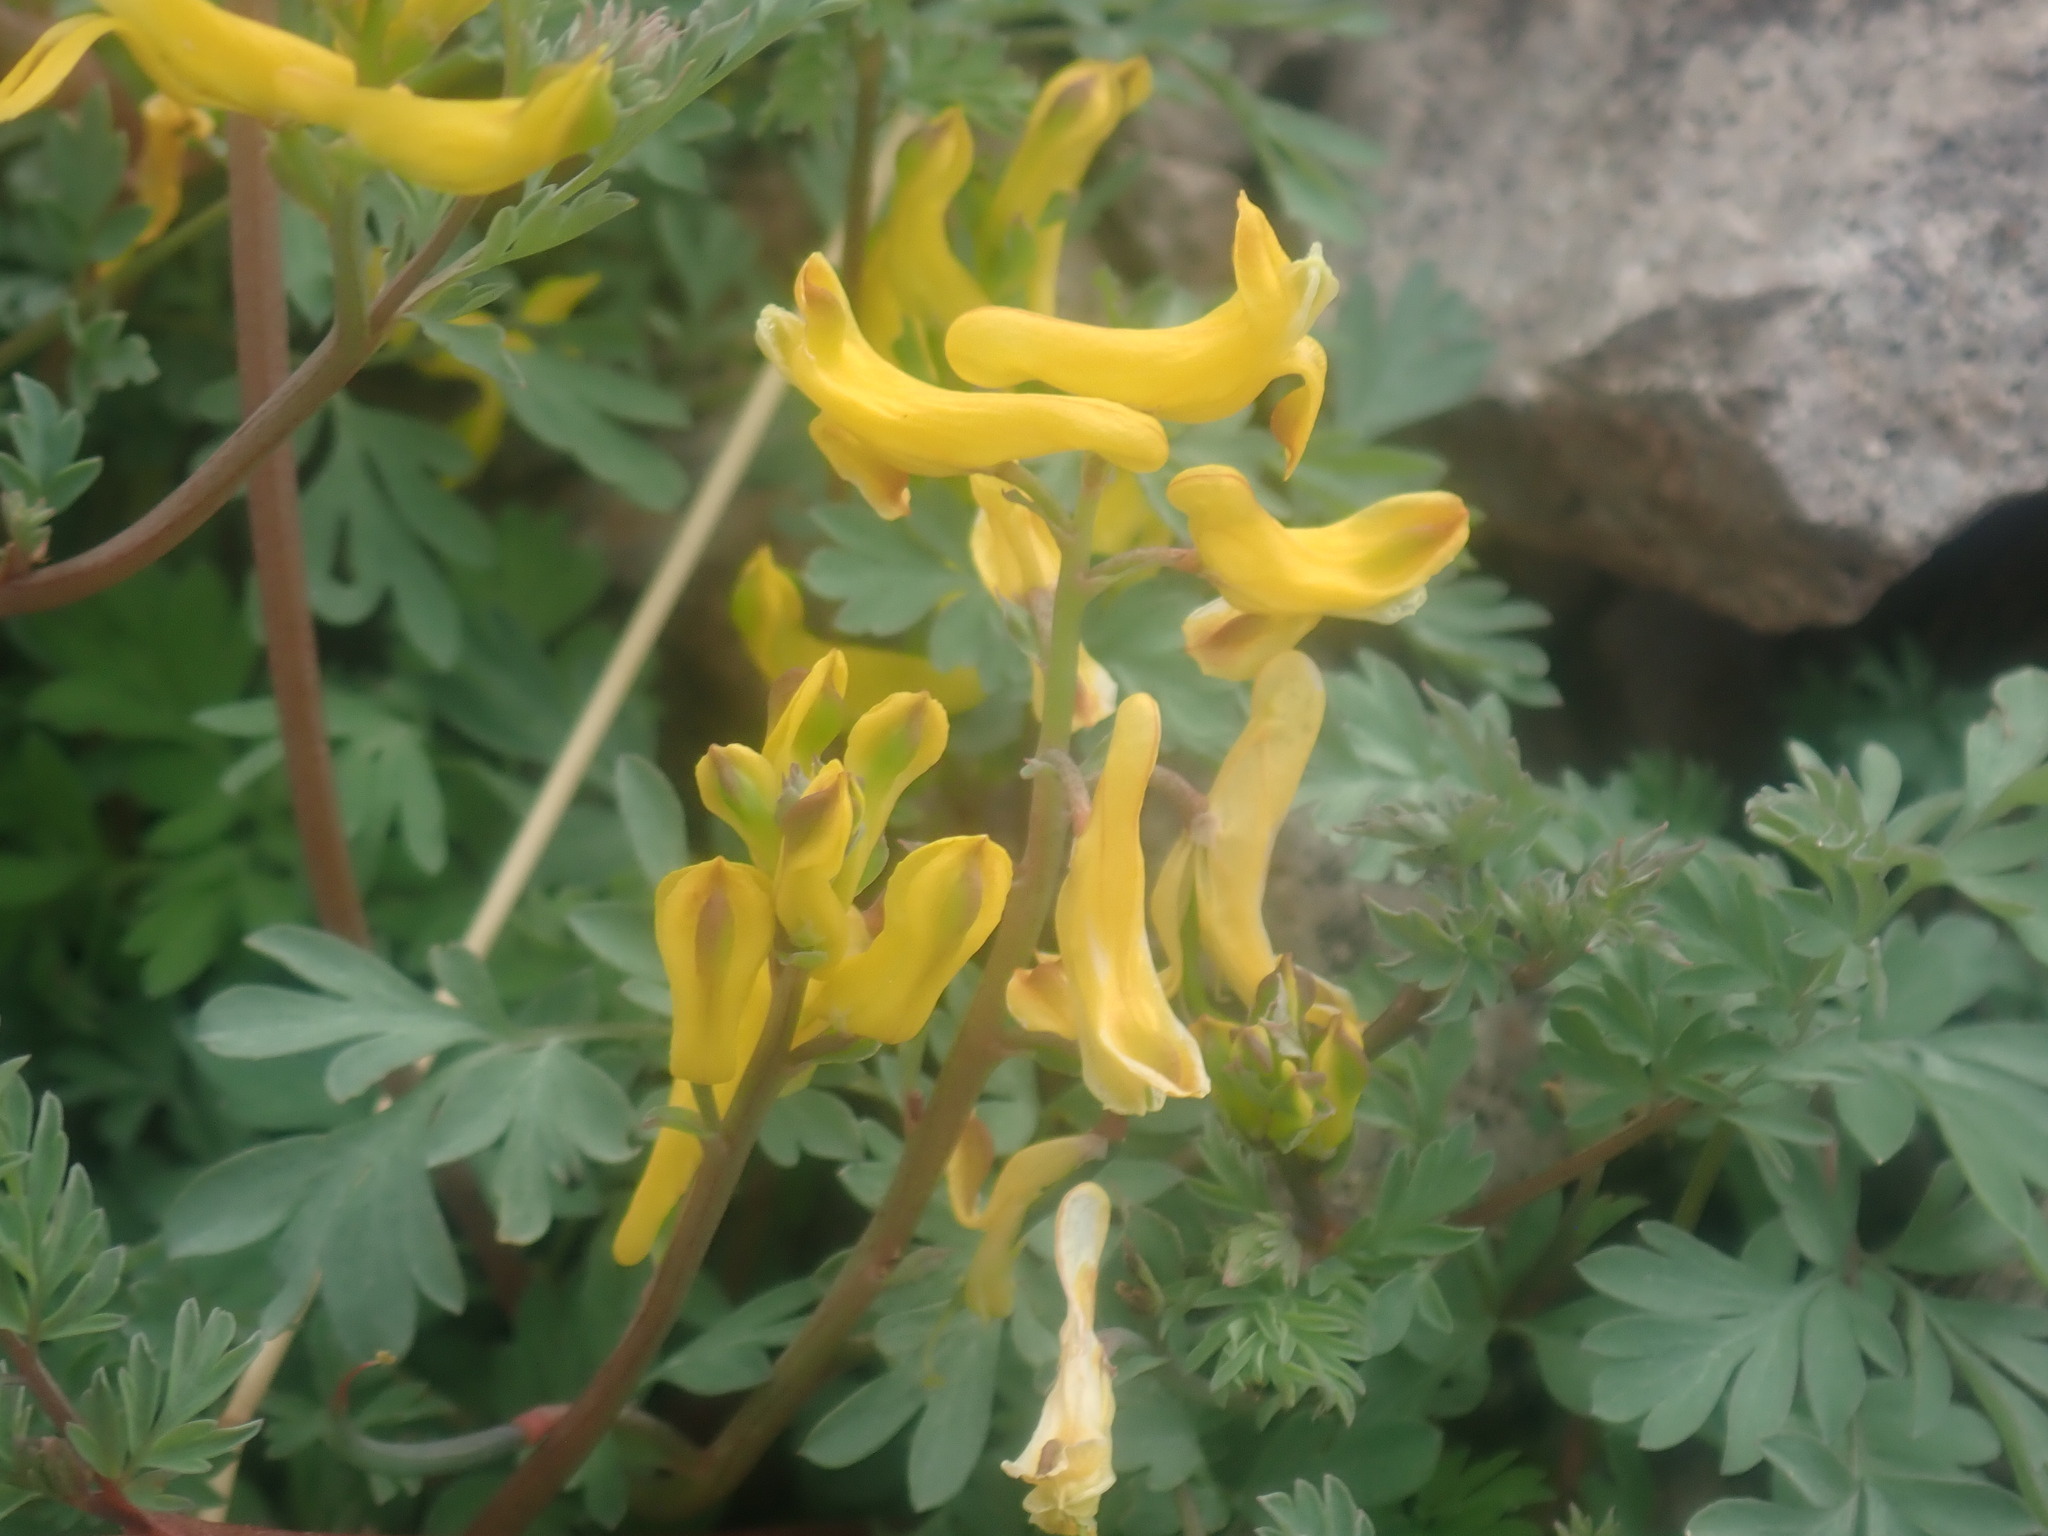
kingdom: Plantae
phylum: Tracheophyta
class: Magnoliopsida
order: Ranunculales
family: Papaveraceae
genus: Corydalis
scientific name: Corydalis aurea
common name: Golden corydalis
